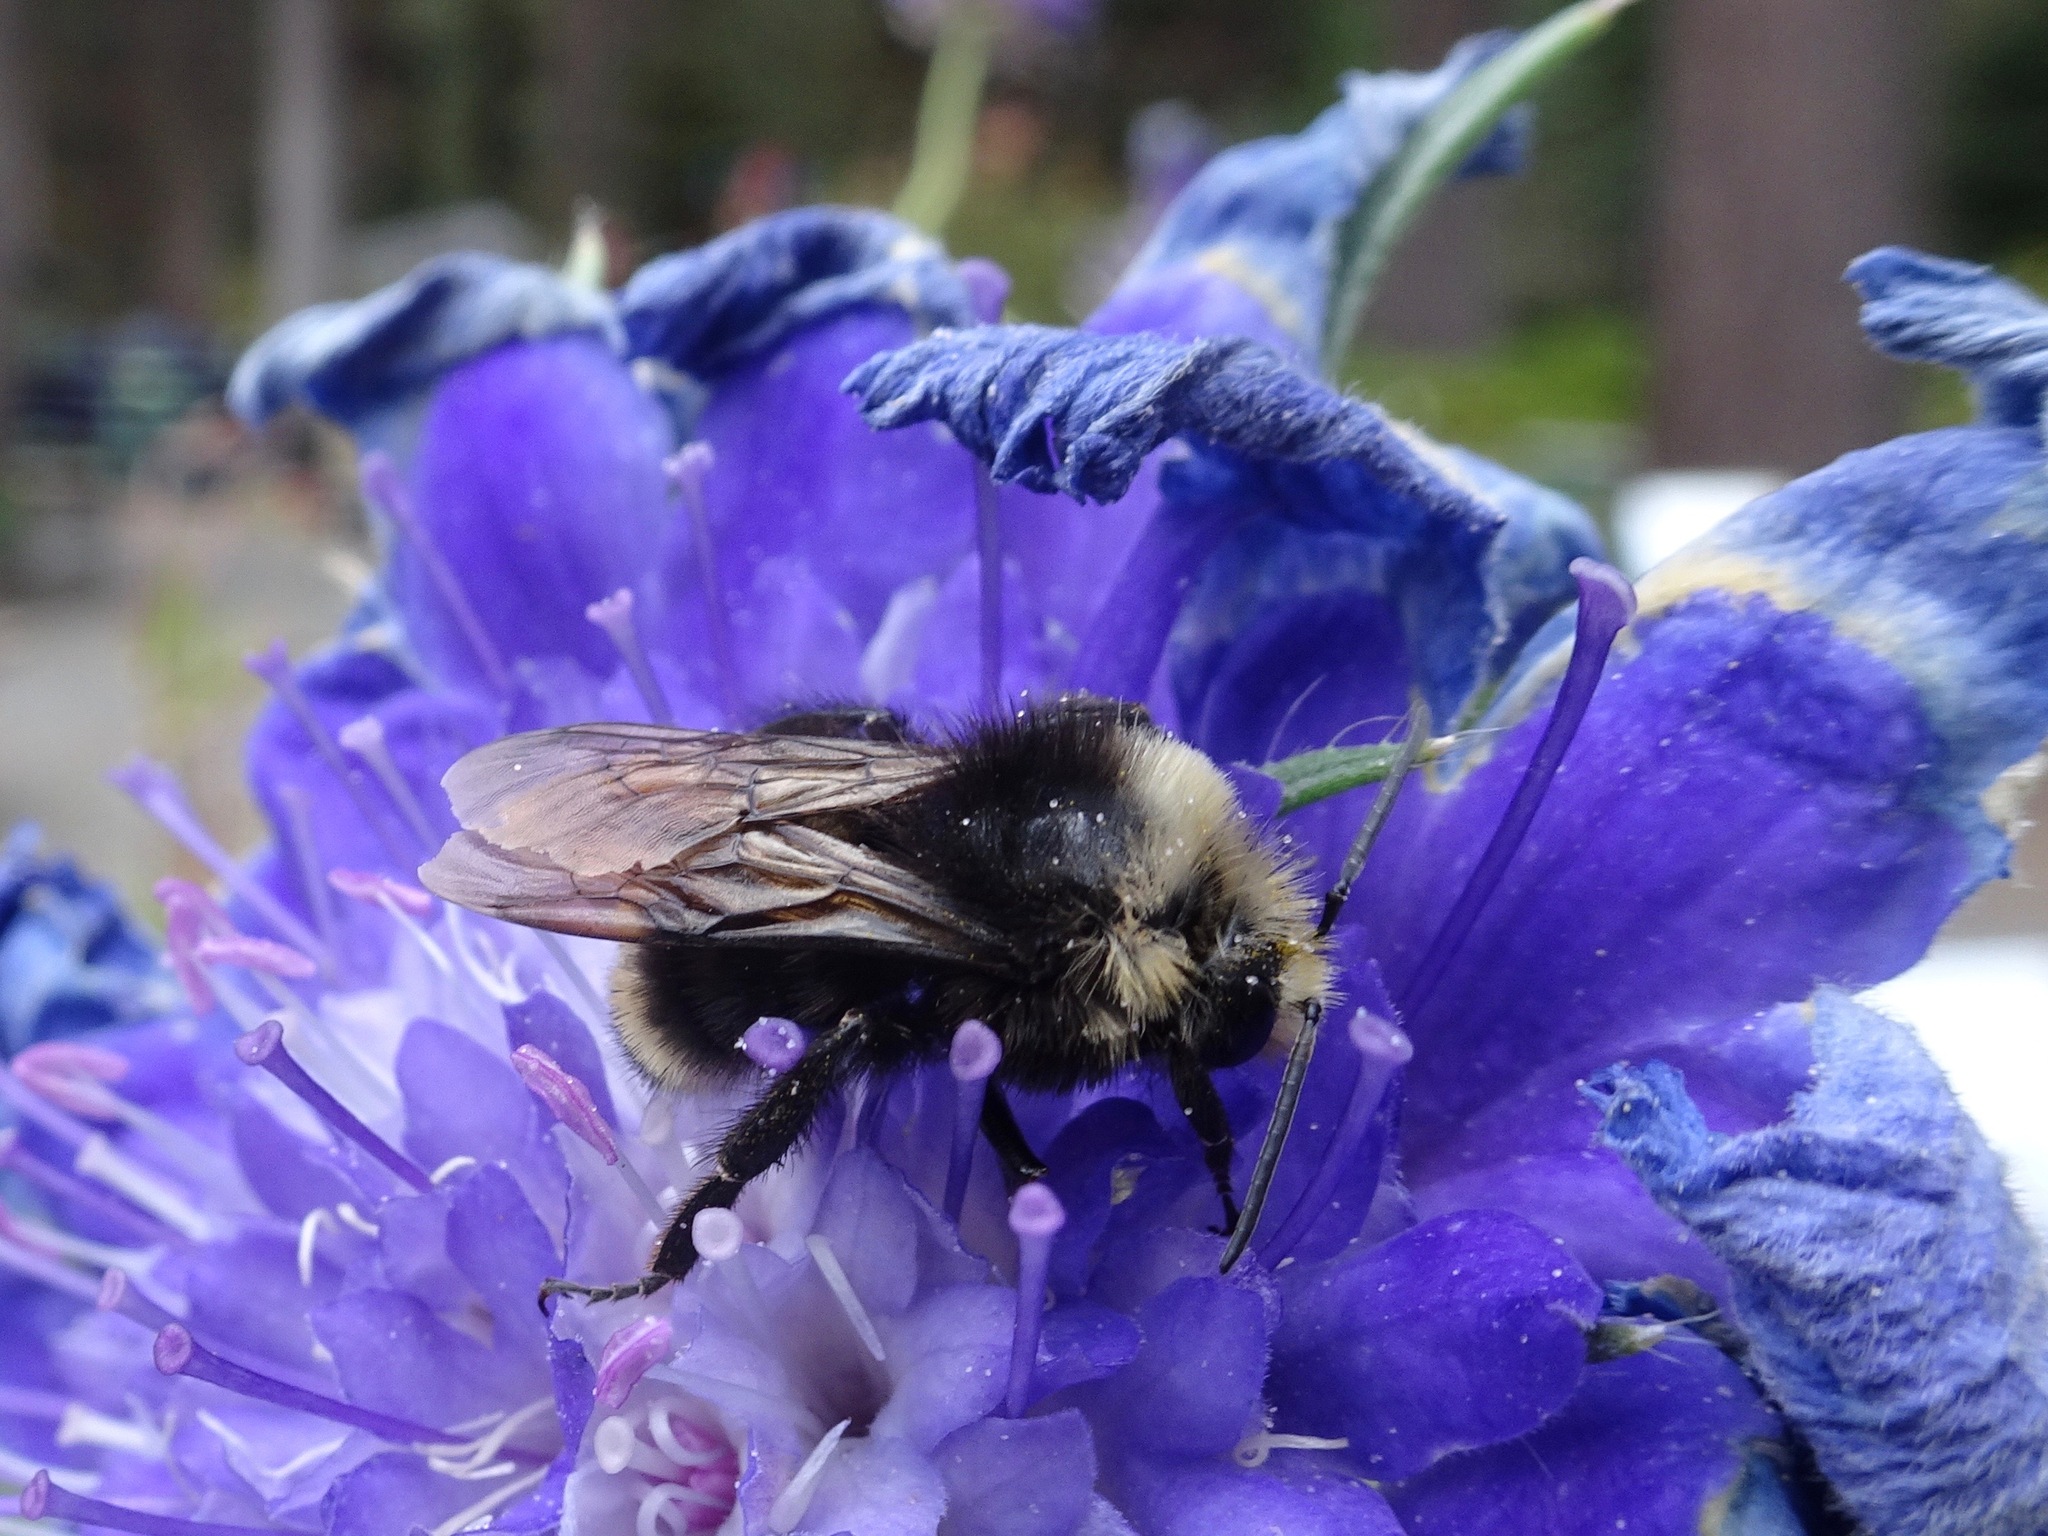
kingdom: Animalia
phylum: Arthropoda
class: Insecta
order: Hymenoptera
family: Apidae
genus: Bombus
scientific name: Bombus vosnesenskii
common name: Vosnesensky bumble bee
